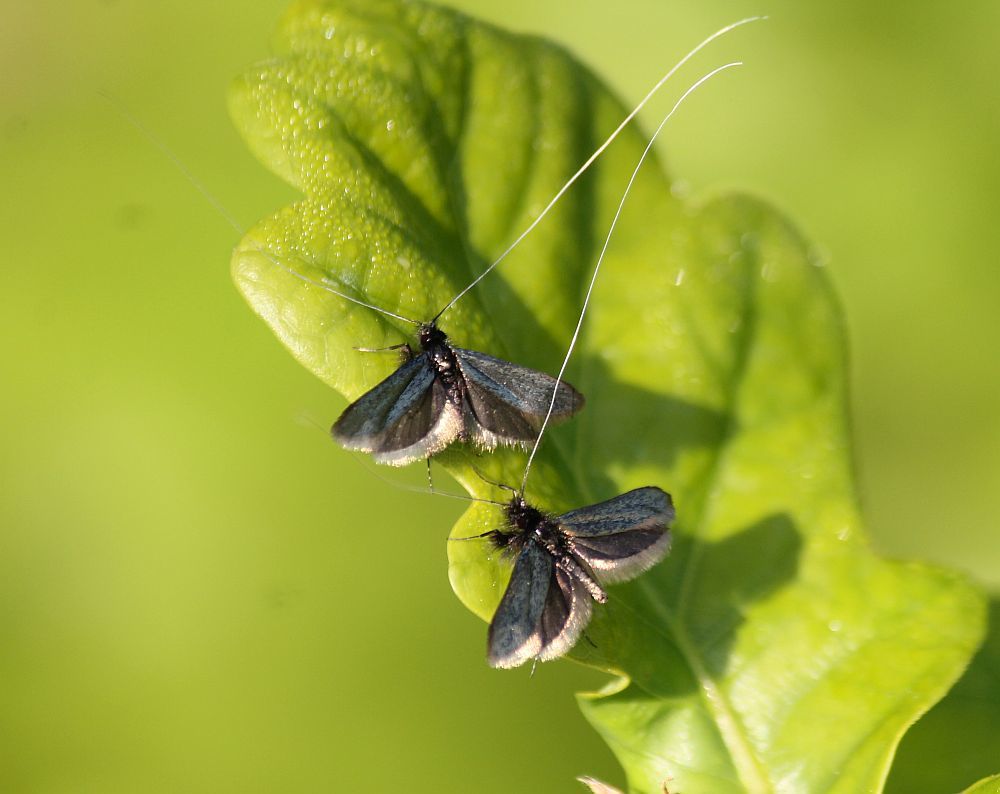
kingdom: Animalia
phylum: Arthropoda
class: Insecta
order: Lepidoptera
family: Adelidae
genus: Adela
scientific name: Adela viridella
